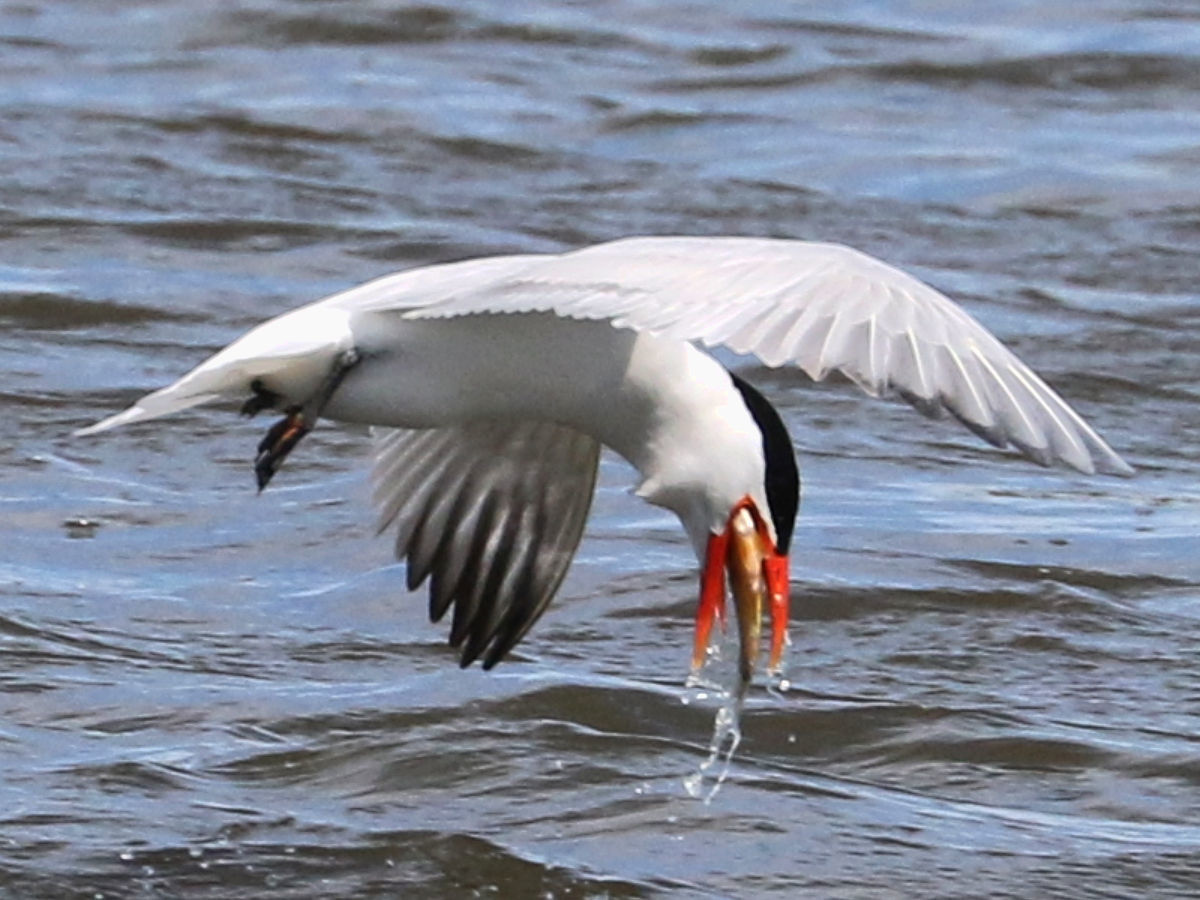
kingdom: Animalia
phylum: Chordata
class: Aves
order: Charadriiformes
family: Laridae
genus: Hydroprogne
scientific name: Hydroprogne caspia
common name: Caspian tern
